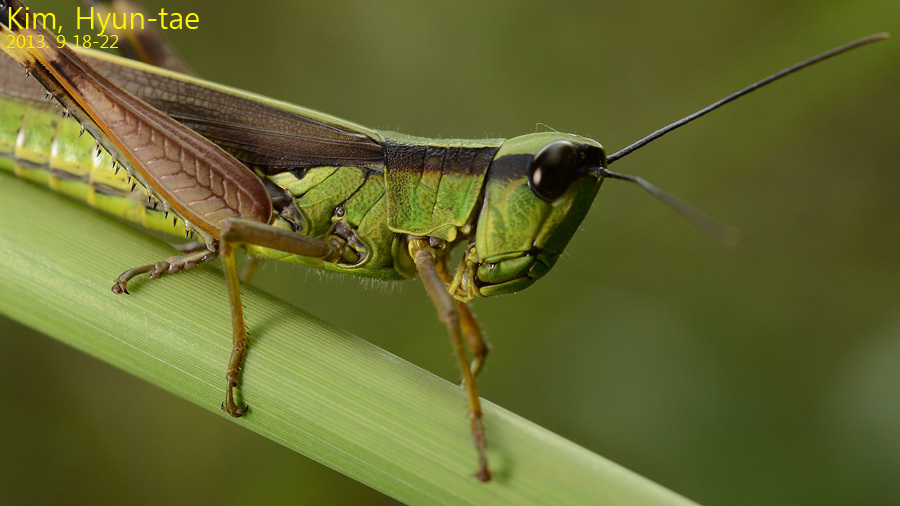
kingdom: Animalia
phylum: Arthropoda
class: Insecta
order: Orthoptera
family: Acrididae
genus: Ceracris
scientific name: Ceracris nigricornis
